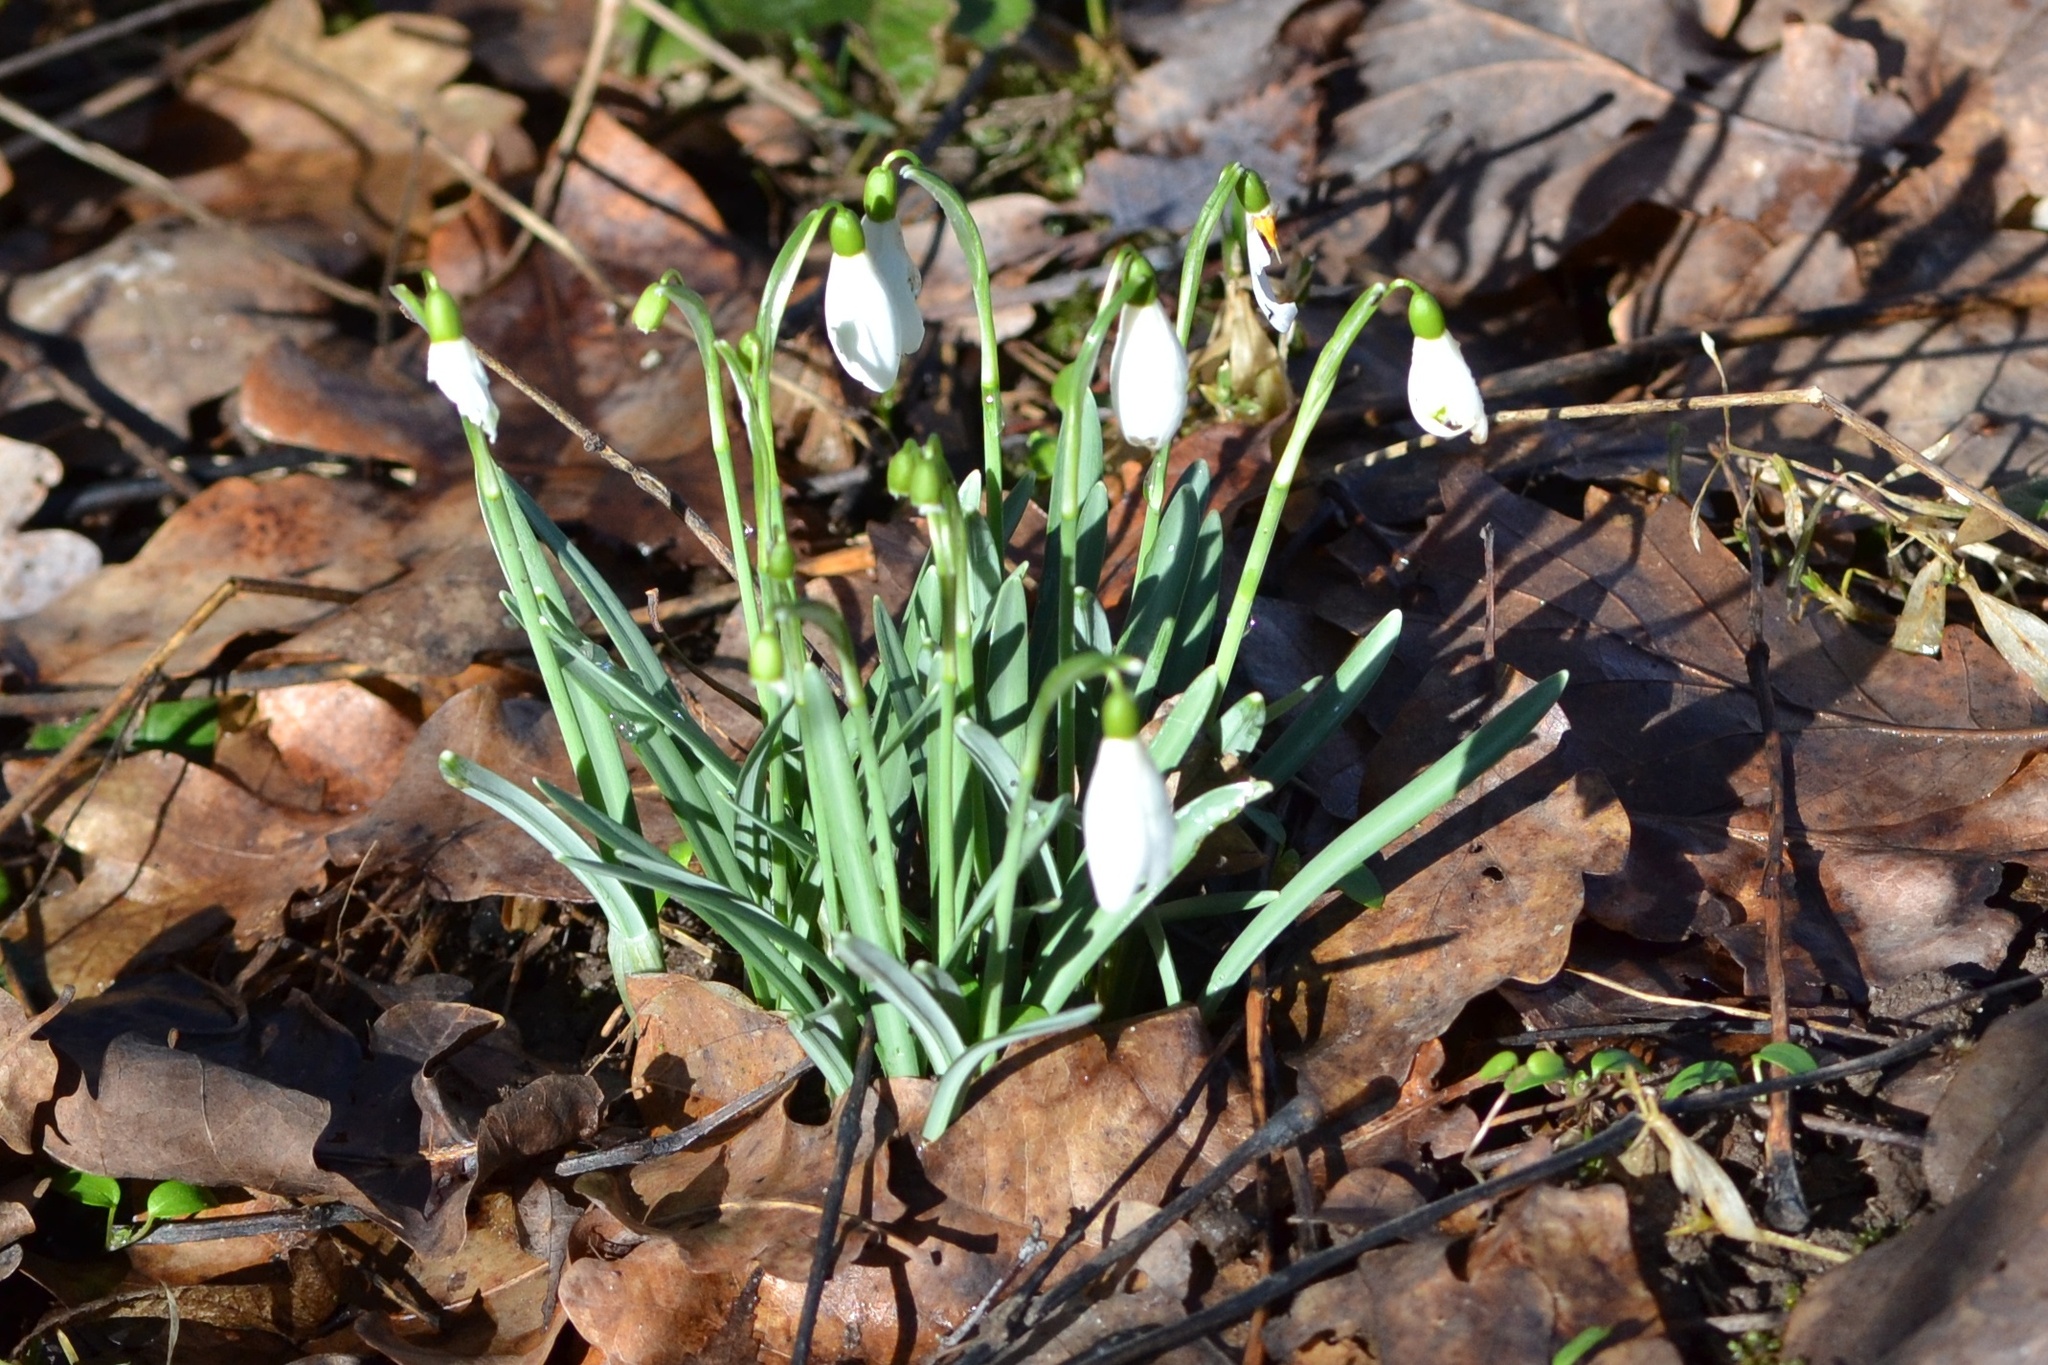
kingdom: Plantae
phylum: Tracheophyta
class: Liliopsida
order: Asparagales
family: Amaryllidaceae
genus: Galanthus
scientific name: Galanthus nivalis
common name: Snowdrop
